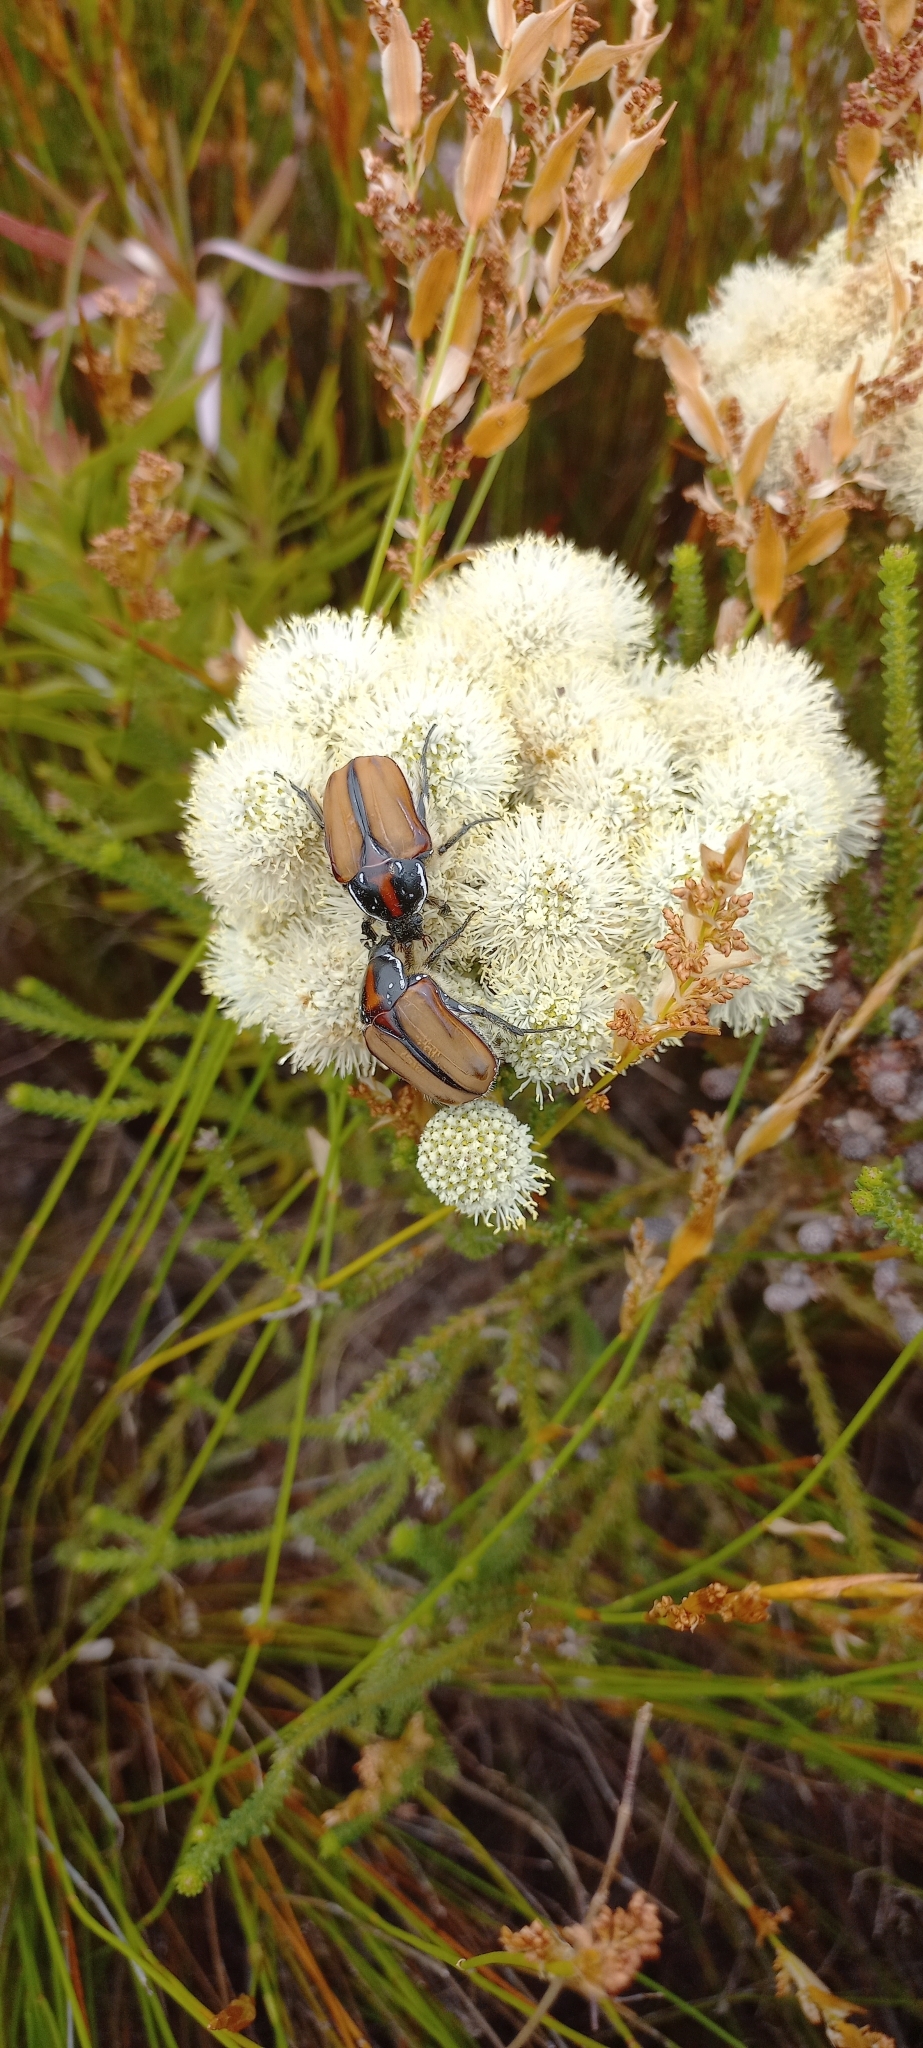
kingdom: Animalia
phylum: Arthropoda
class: Insecta
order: Coleoptera
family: Scarabaeidae
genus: Trichostetha
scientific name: Trichostetha signata
